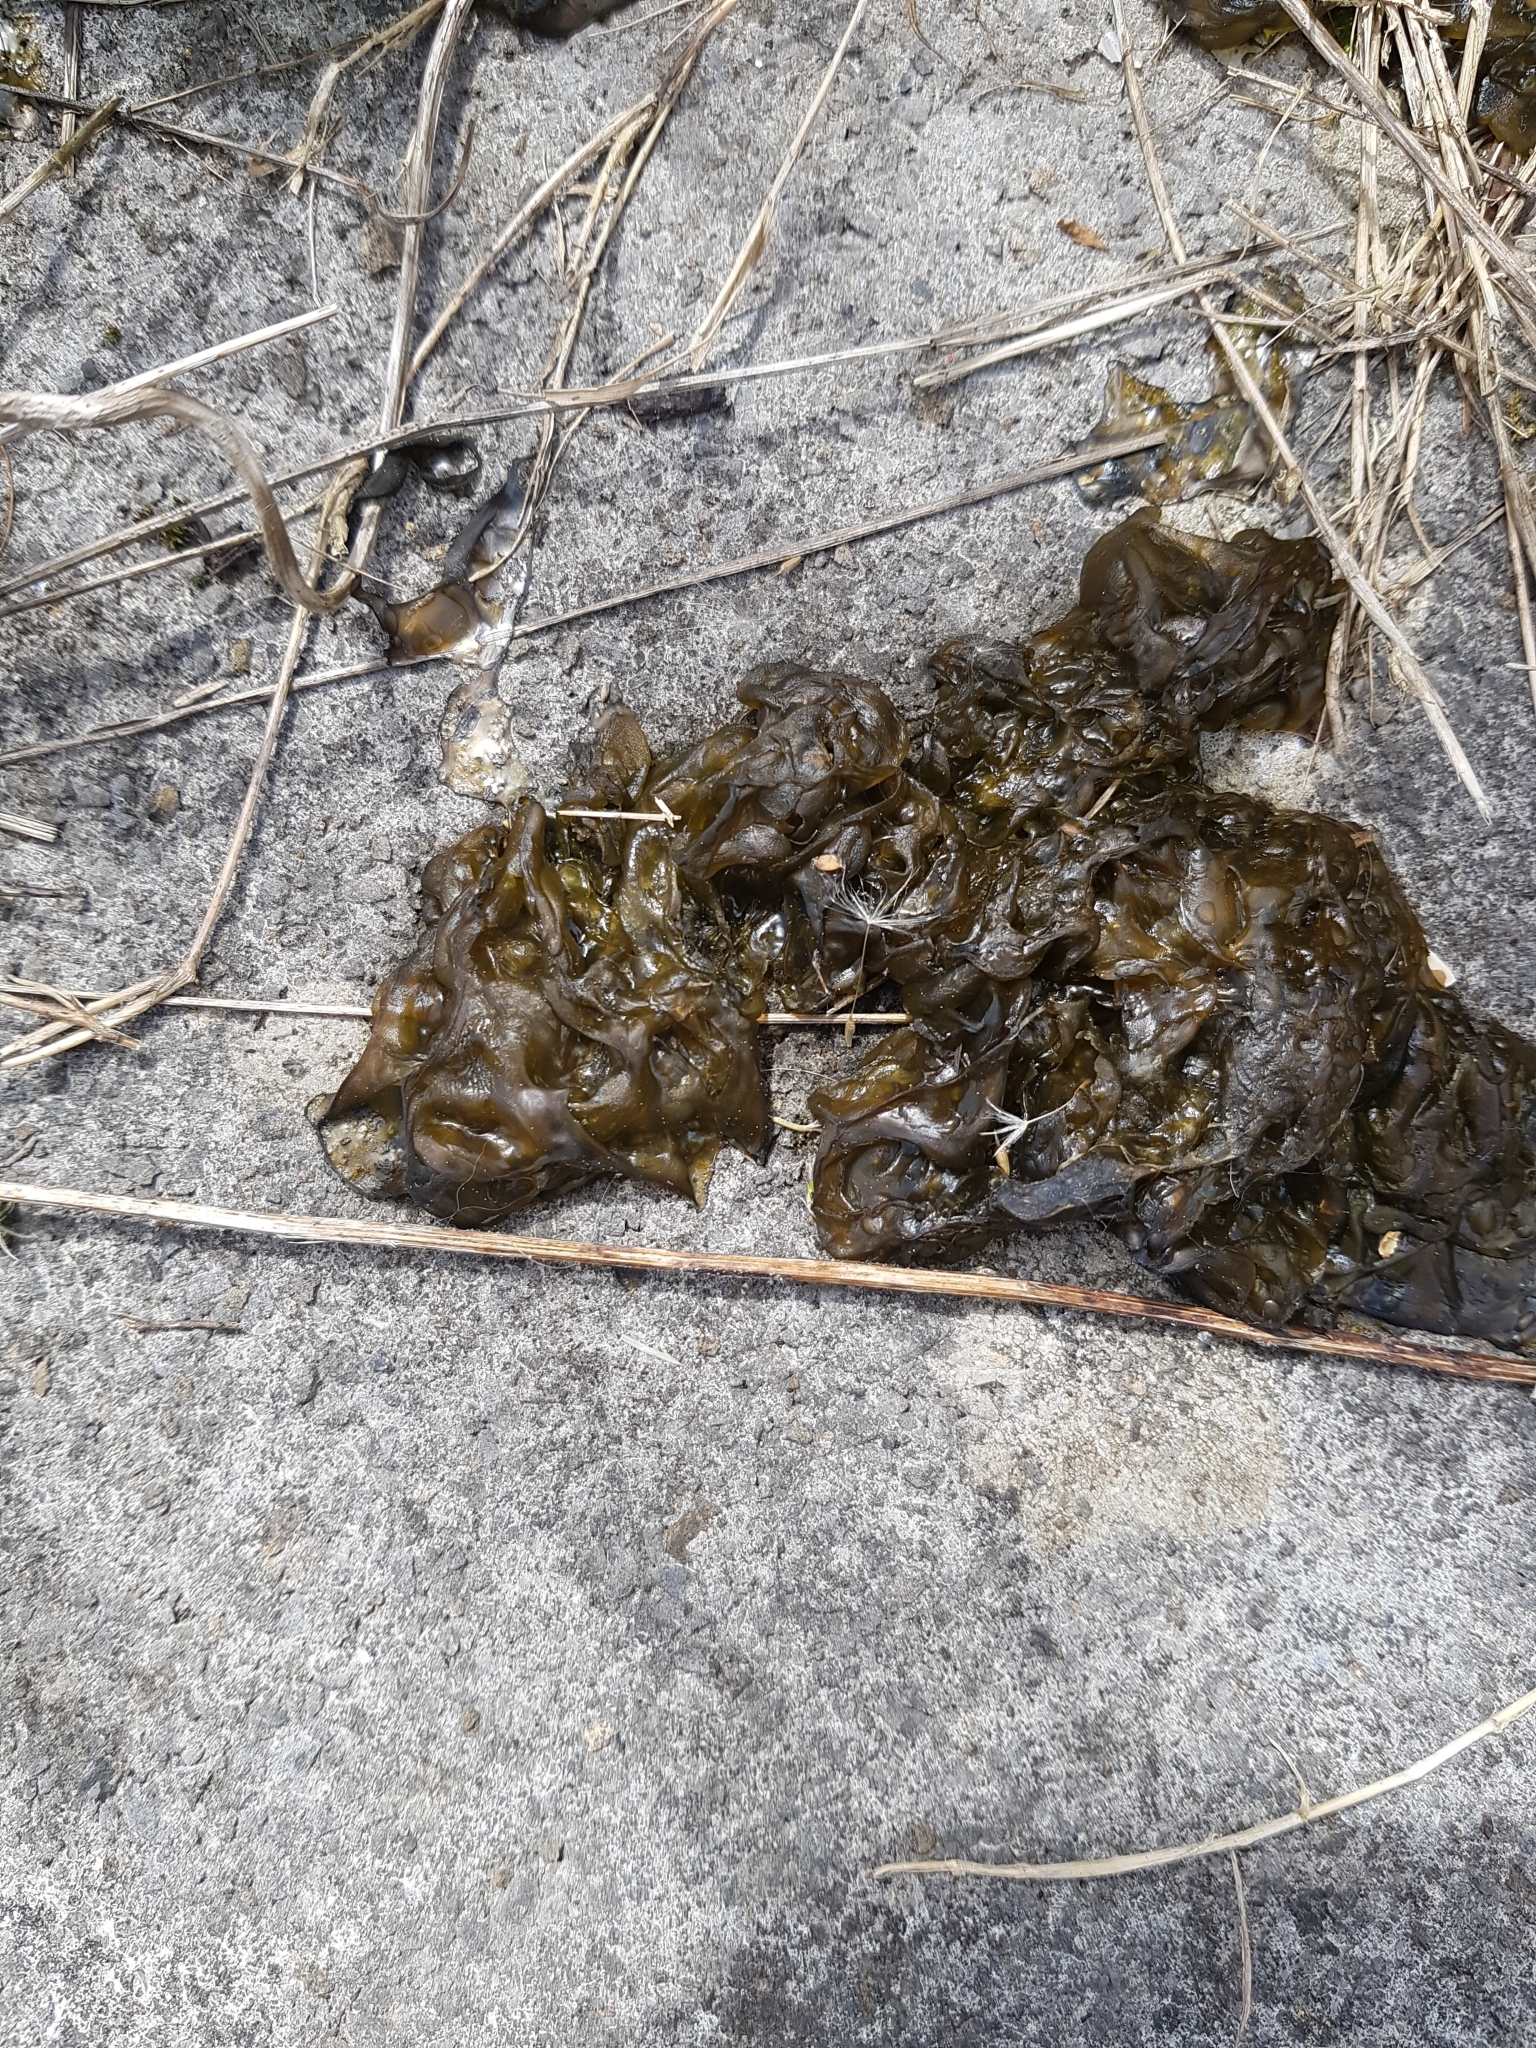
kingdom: Bacteria
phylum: Cyanobacteria
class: Cyanobacteriia
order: Cyanobacteriales
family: Nostocaceae
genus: Nostoc
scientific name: Nostoc commune
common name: Star jelly
